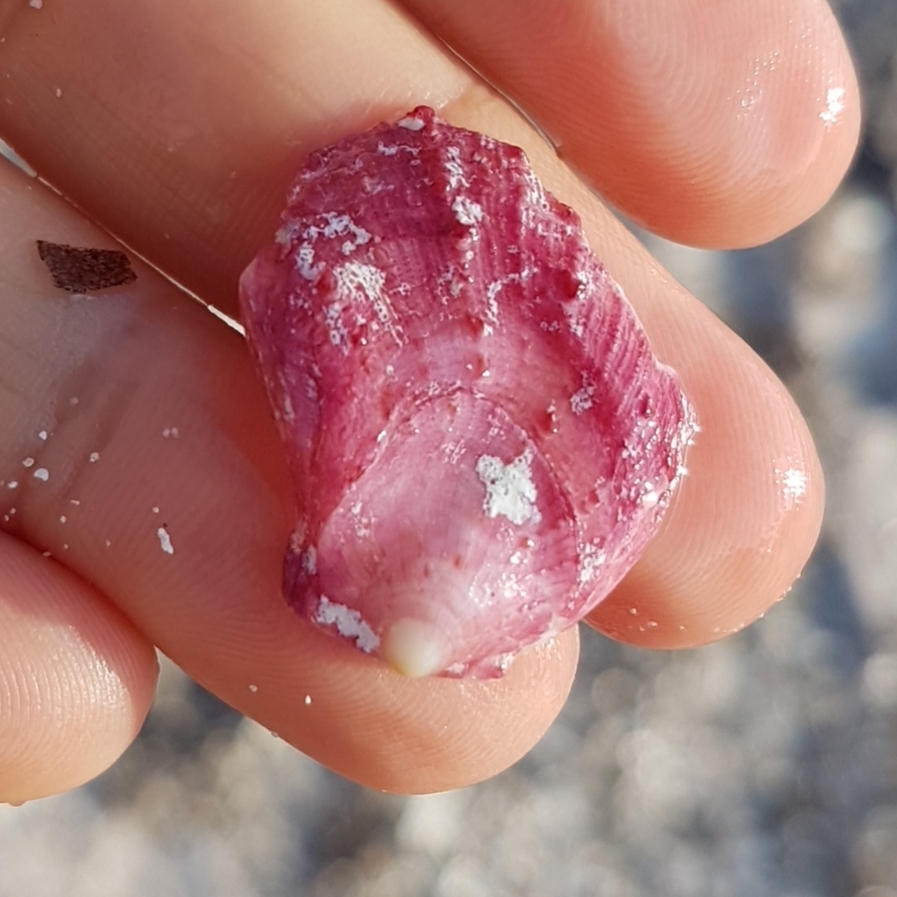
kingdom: Animalia
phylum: Mollusca
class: Bivalvia
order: Pectinida
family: Spondylidae
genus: Spondylus
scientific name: Spondylus gaederopus
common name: European thorny oyster
